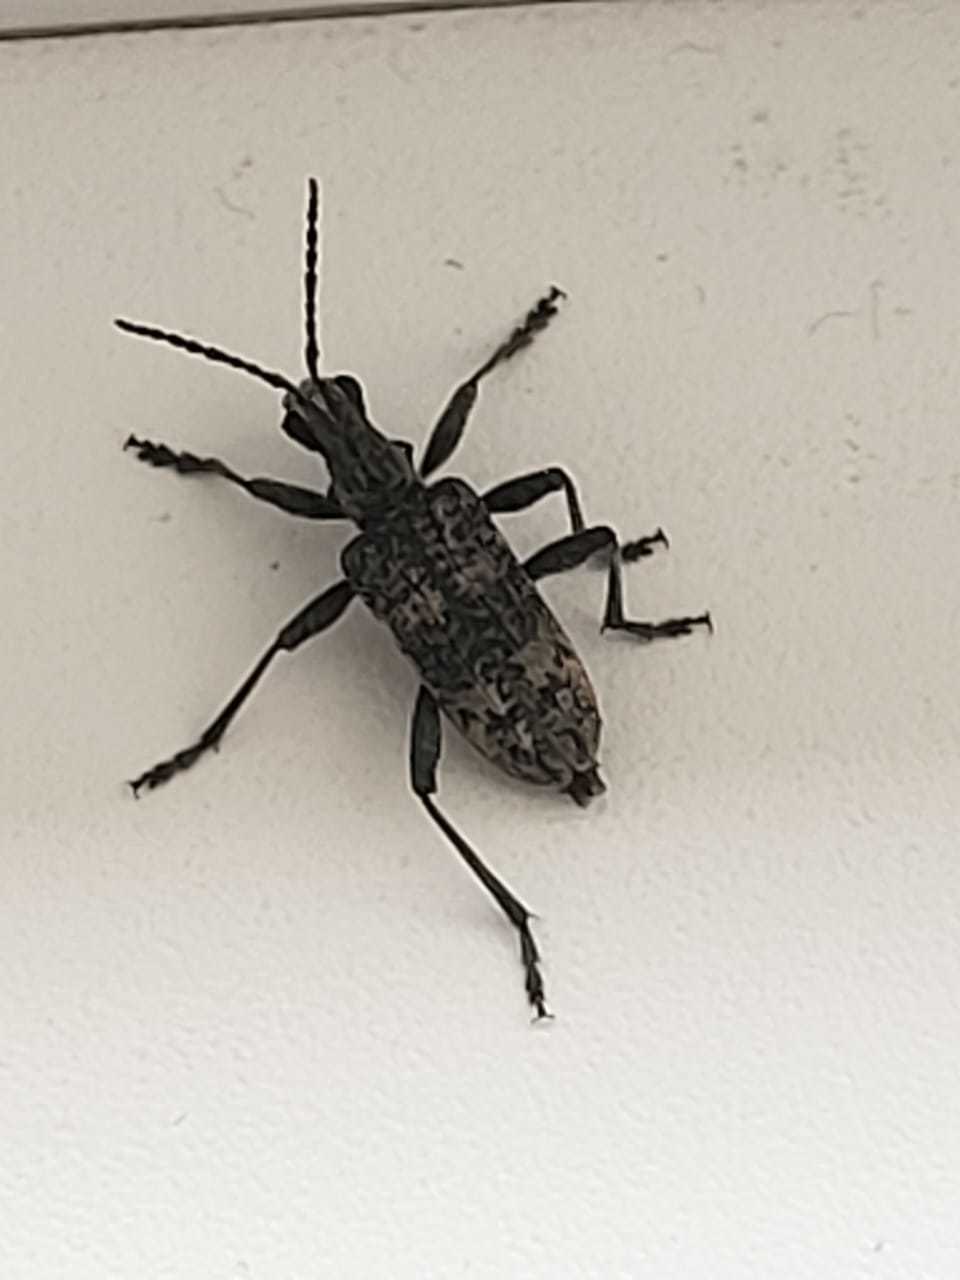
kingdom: Animalia
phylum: Arthropoda
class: Insecta
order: Coleoptera
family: Cerambycidae
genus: Rhagium
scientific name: Rhagium inquisitor
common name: Ribbed pine borer
